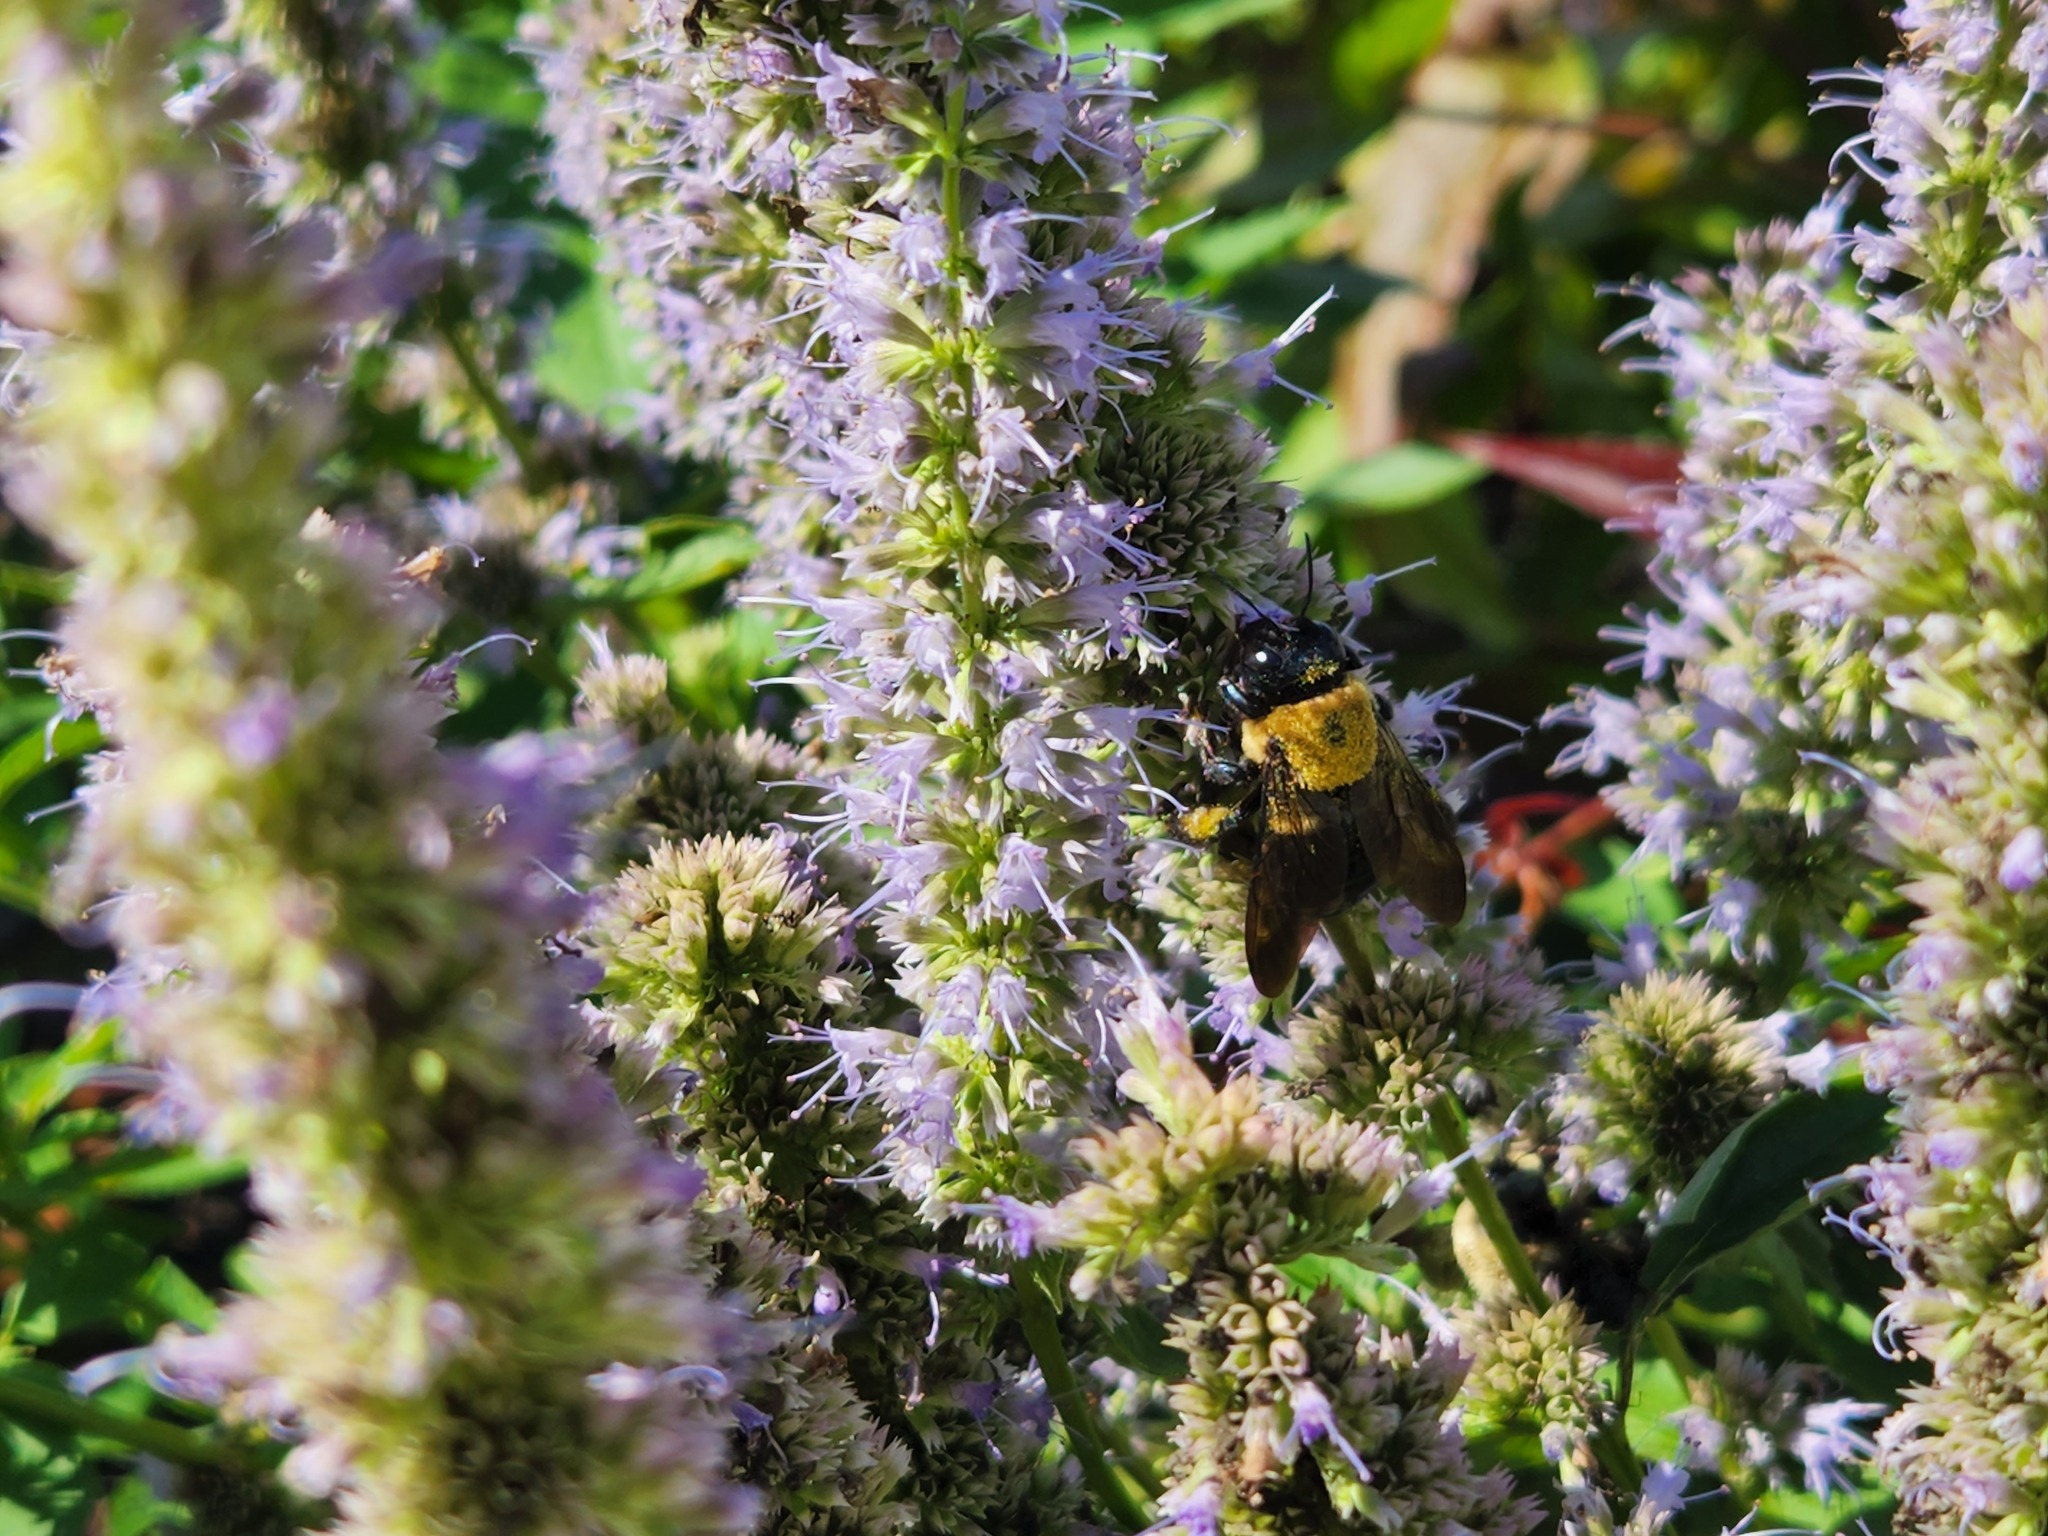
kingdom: Animalia
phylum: Arthropoda
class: Insecta
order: Hymenoptera
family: Apidae
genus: Xylocopa
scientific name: Xylocopa virginica
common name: Carpenter bee
